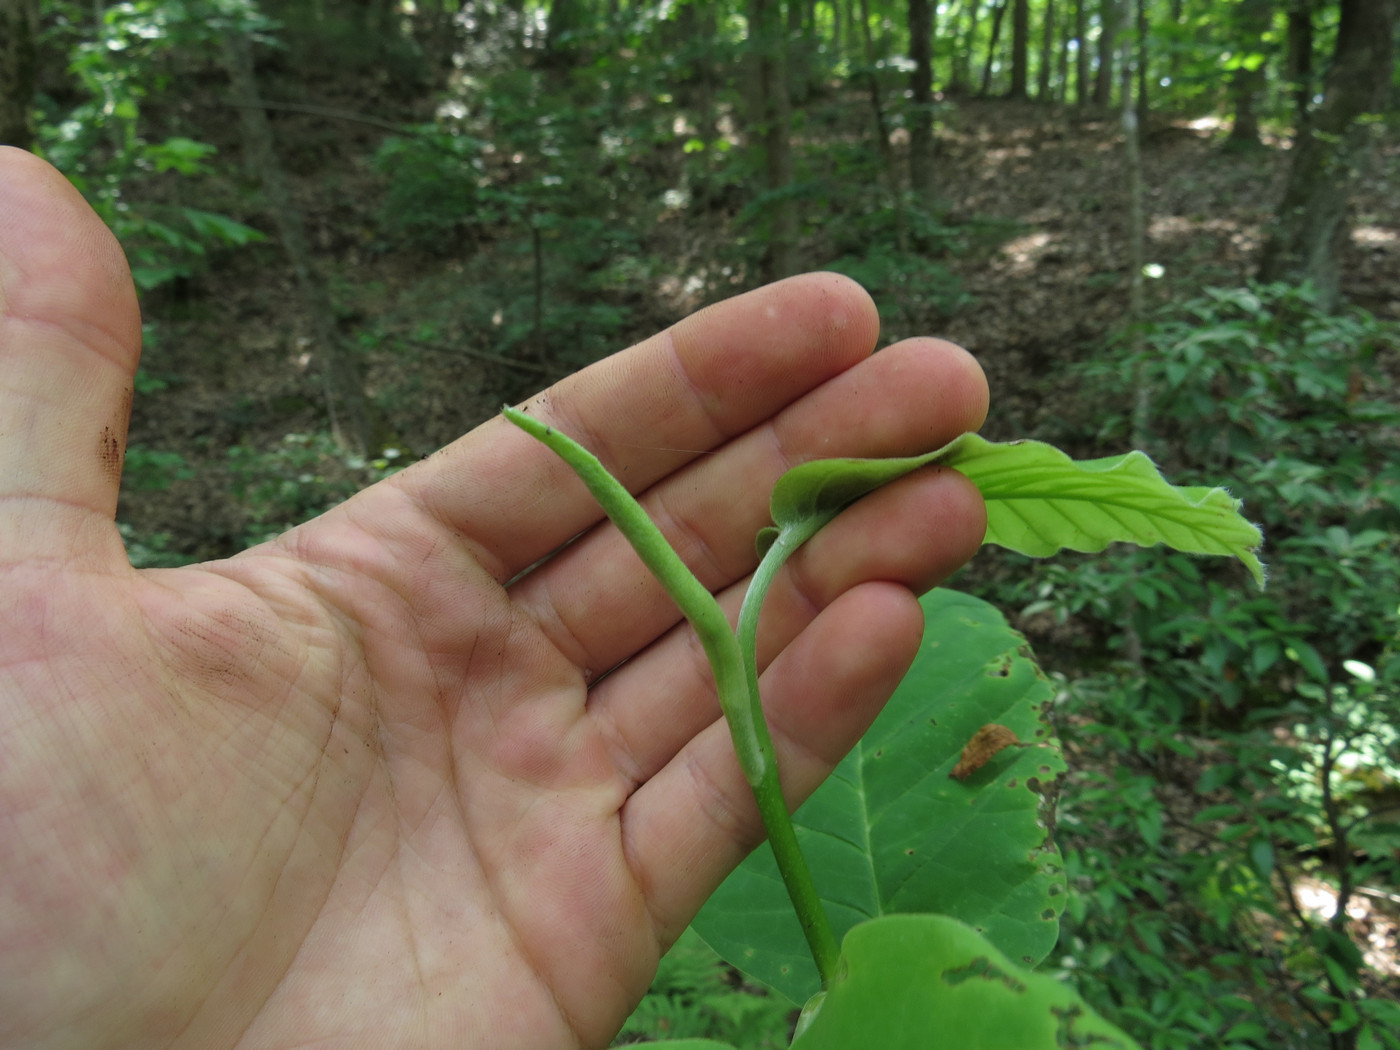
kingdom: Plantae
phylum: Tracheophyta
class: Magnoliopsida
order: Magnoliales
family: Magnoliaceae
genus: Magnolia
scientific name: Magnolia acuminata
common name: Cucumber magnolia
